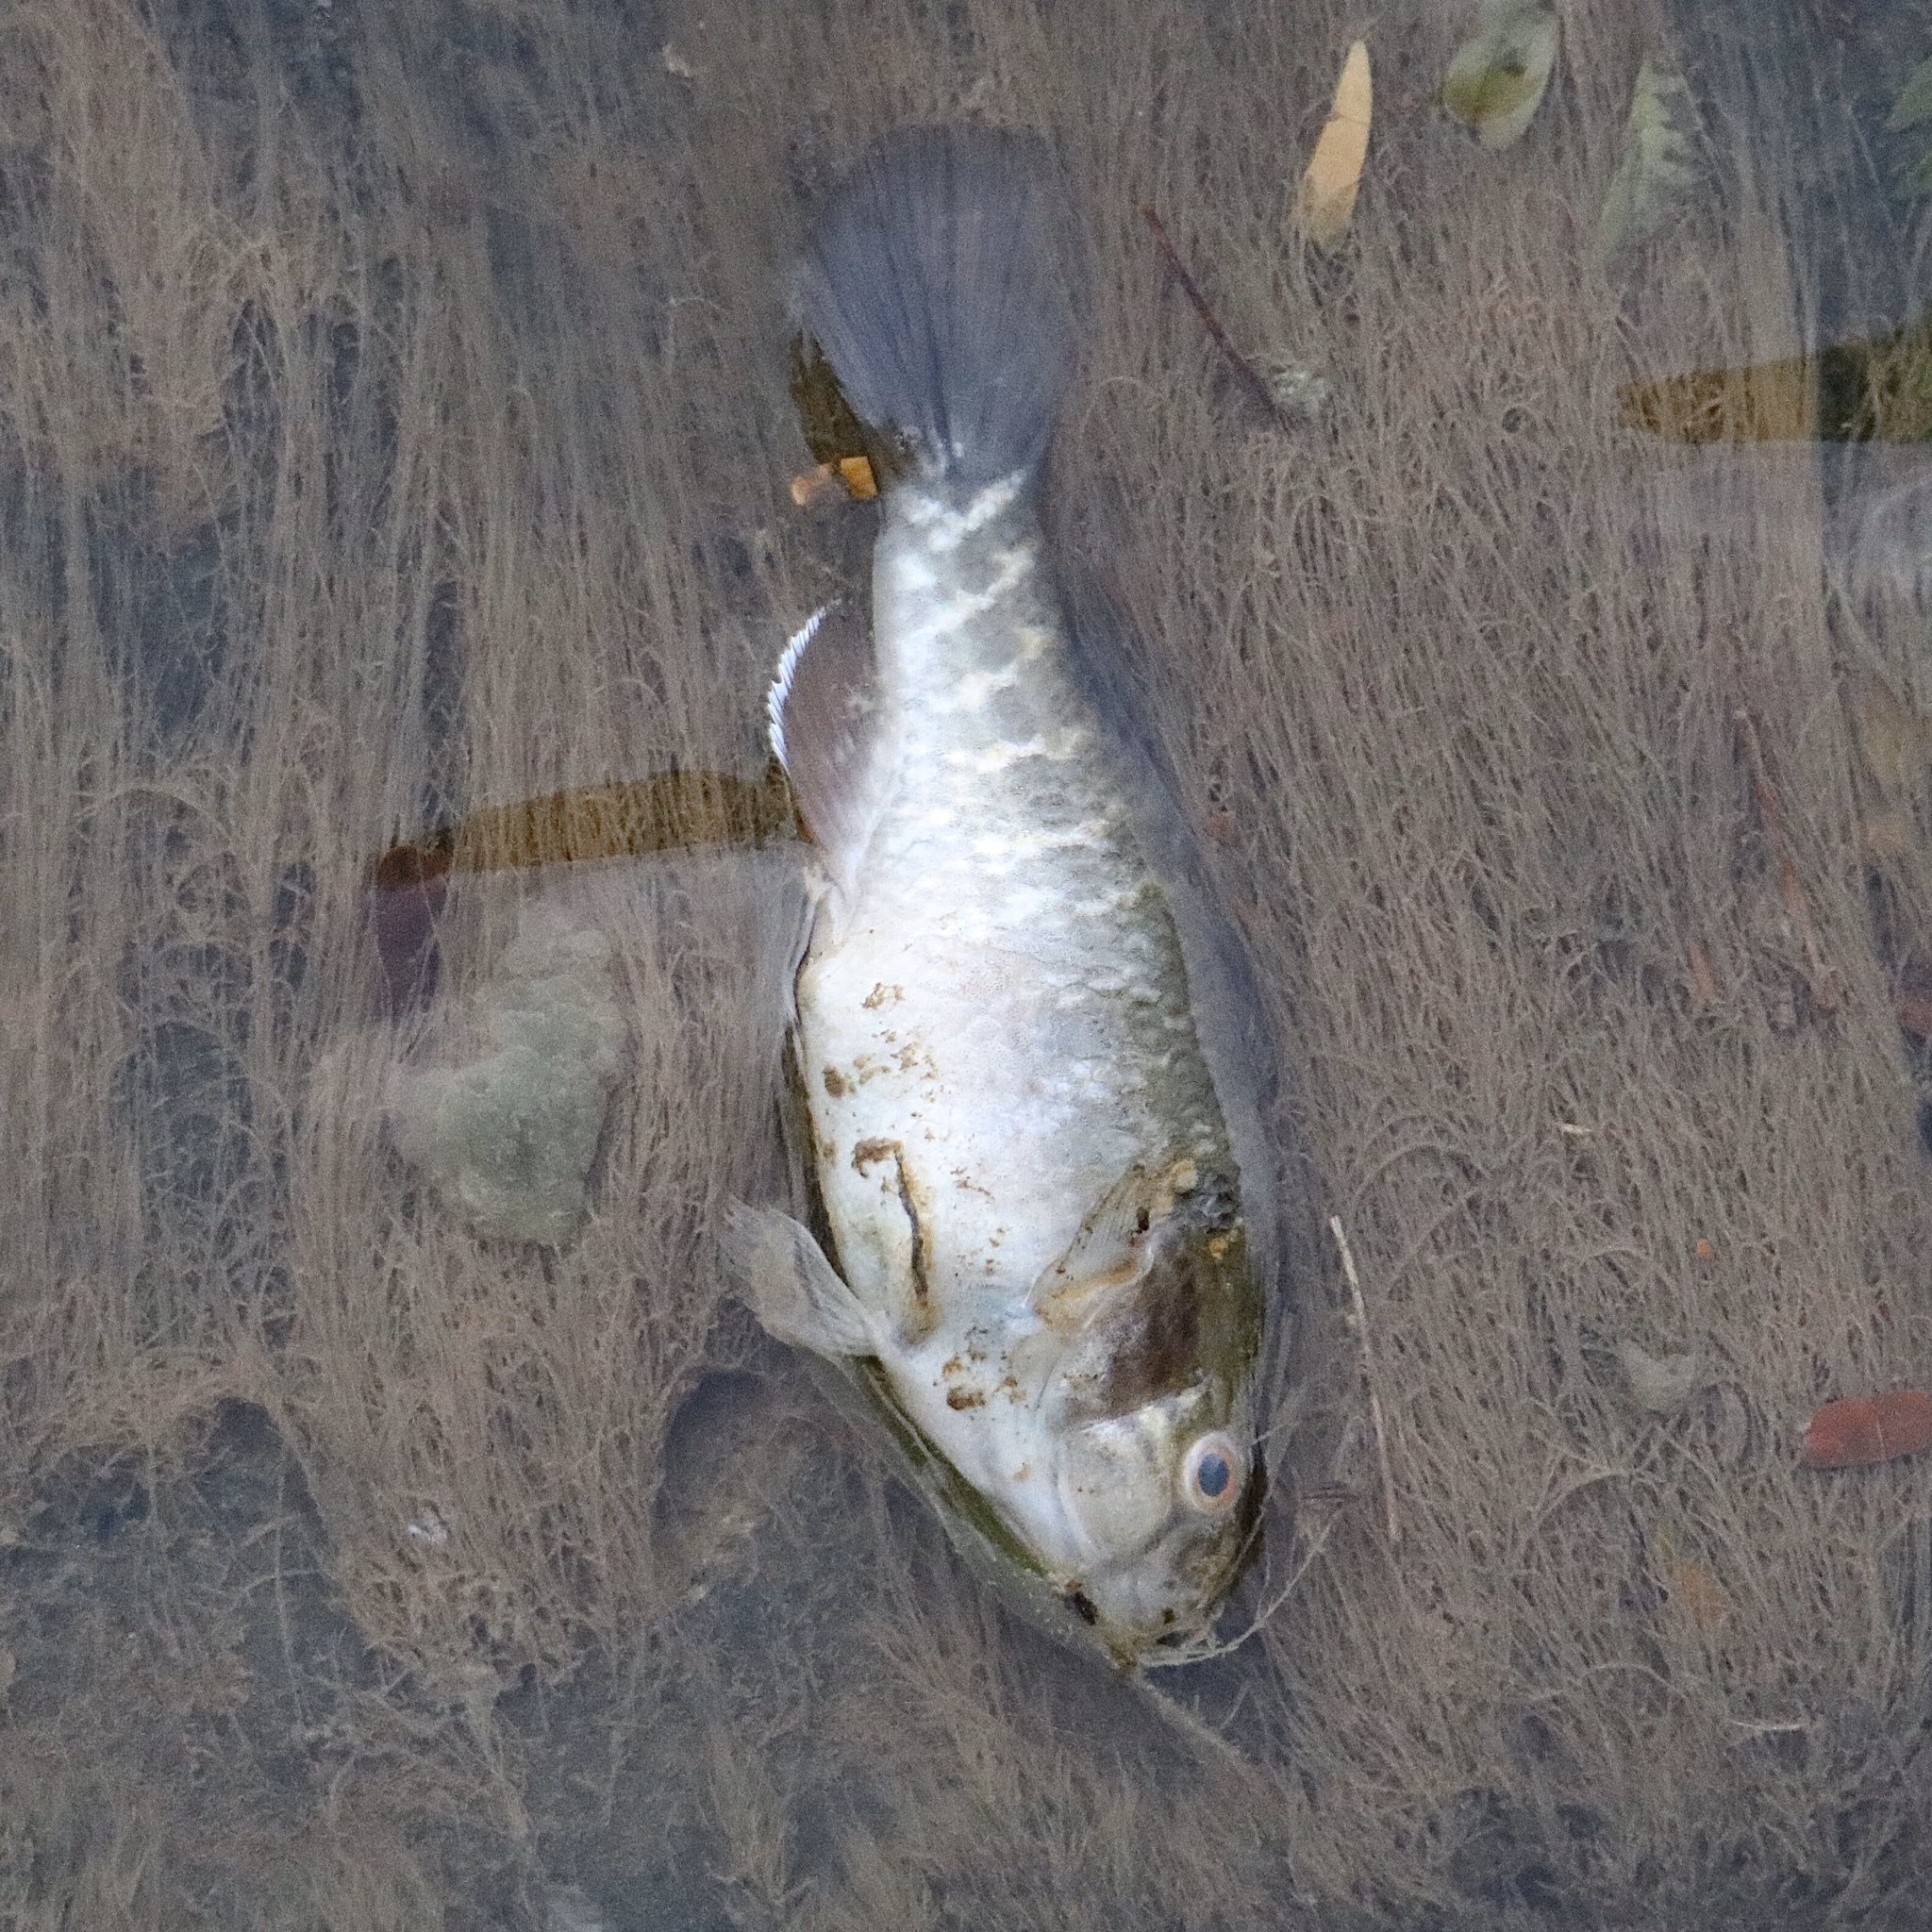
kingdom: Animalia
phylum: Chordata
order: Perciformes
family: Eleotridae
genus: Dormitator
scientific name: Dormitator latifrons
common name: Pacific fat sleeper
